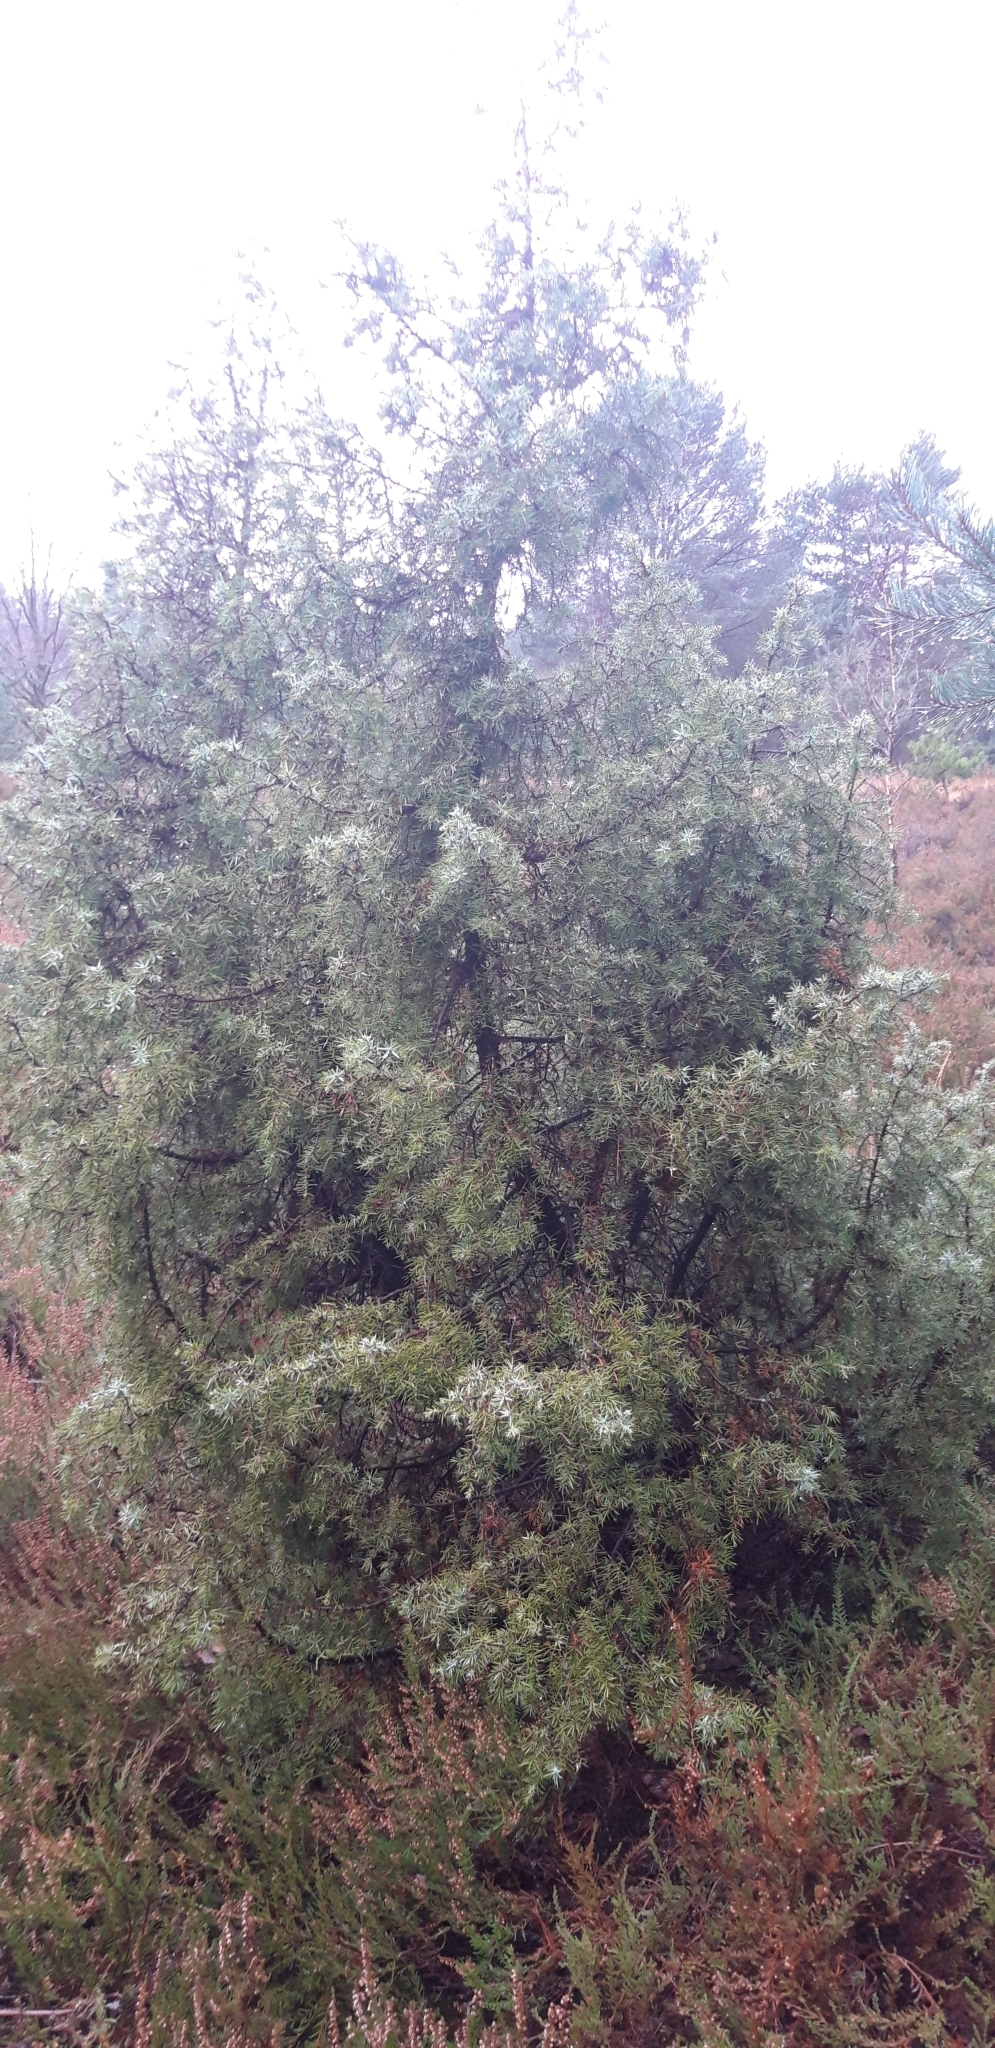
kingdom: Plantae
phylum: Tracheophyta
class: Pinopsida
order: Pinales
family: Cupressaceae
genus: Juniperus
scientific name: Juniperus communis
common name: Common juniper
